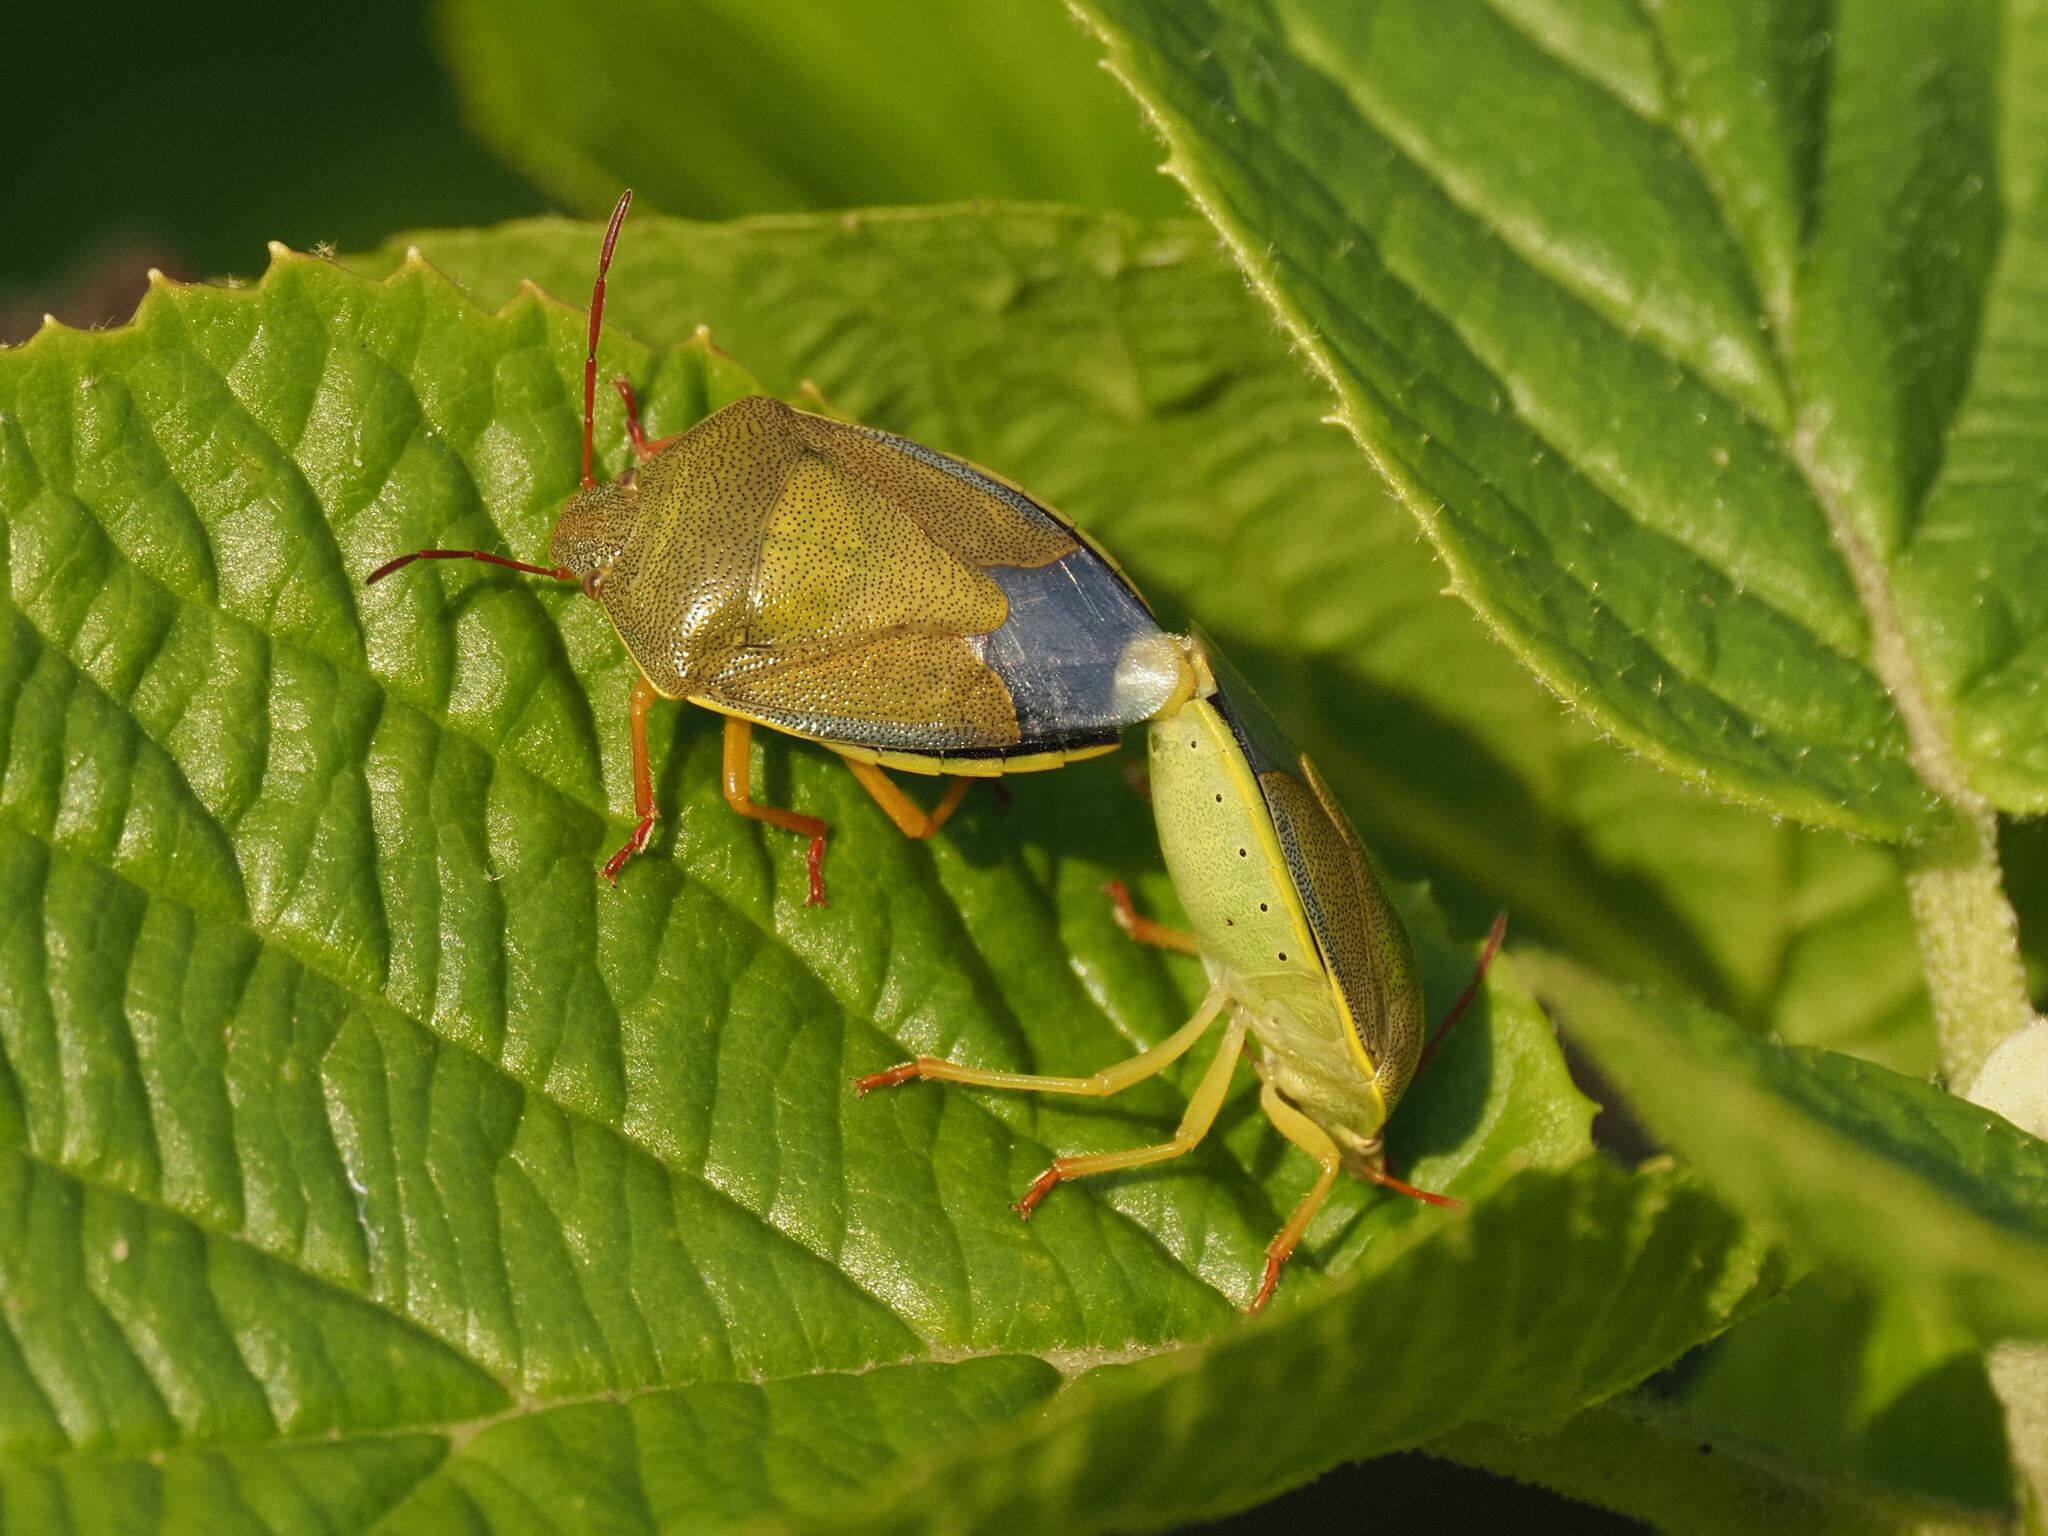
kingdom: Animalia
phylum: Arthropoda
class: Insecta
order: Hemiptera
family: Pentatomidae
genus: Piezodorus
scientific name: Piezodorus lituratus
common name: Stink bug
